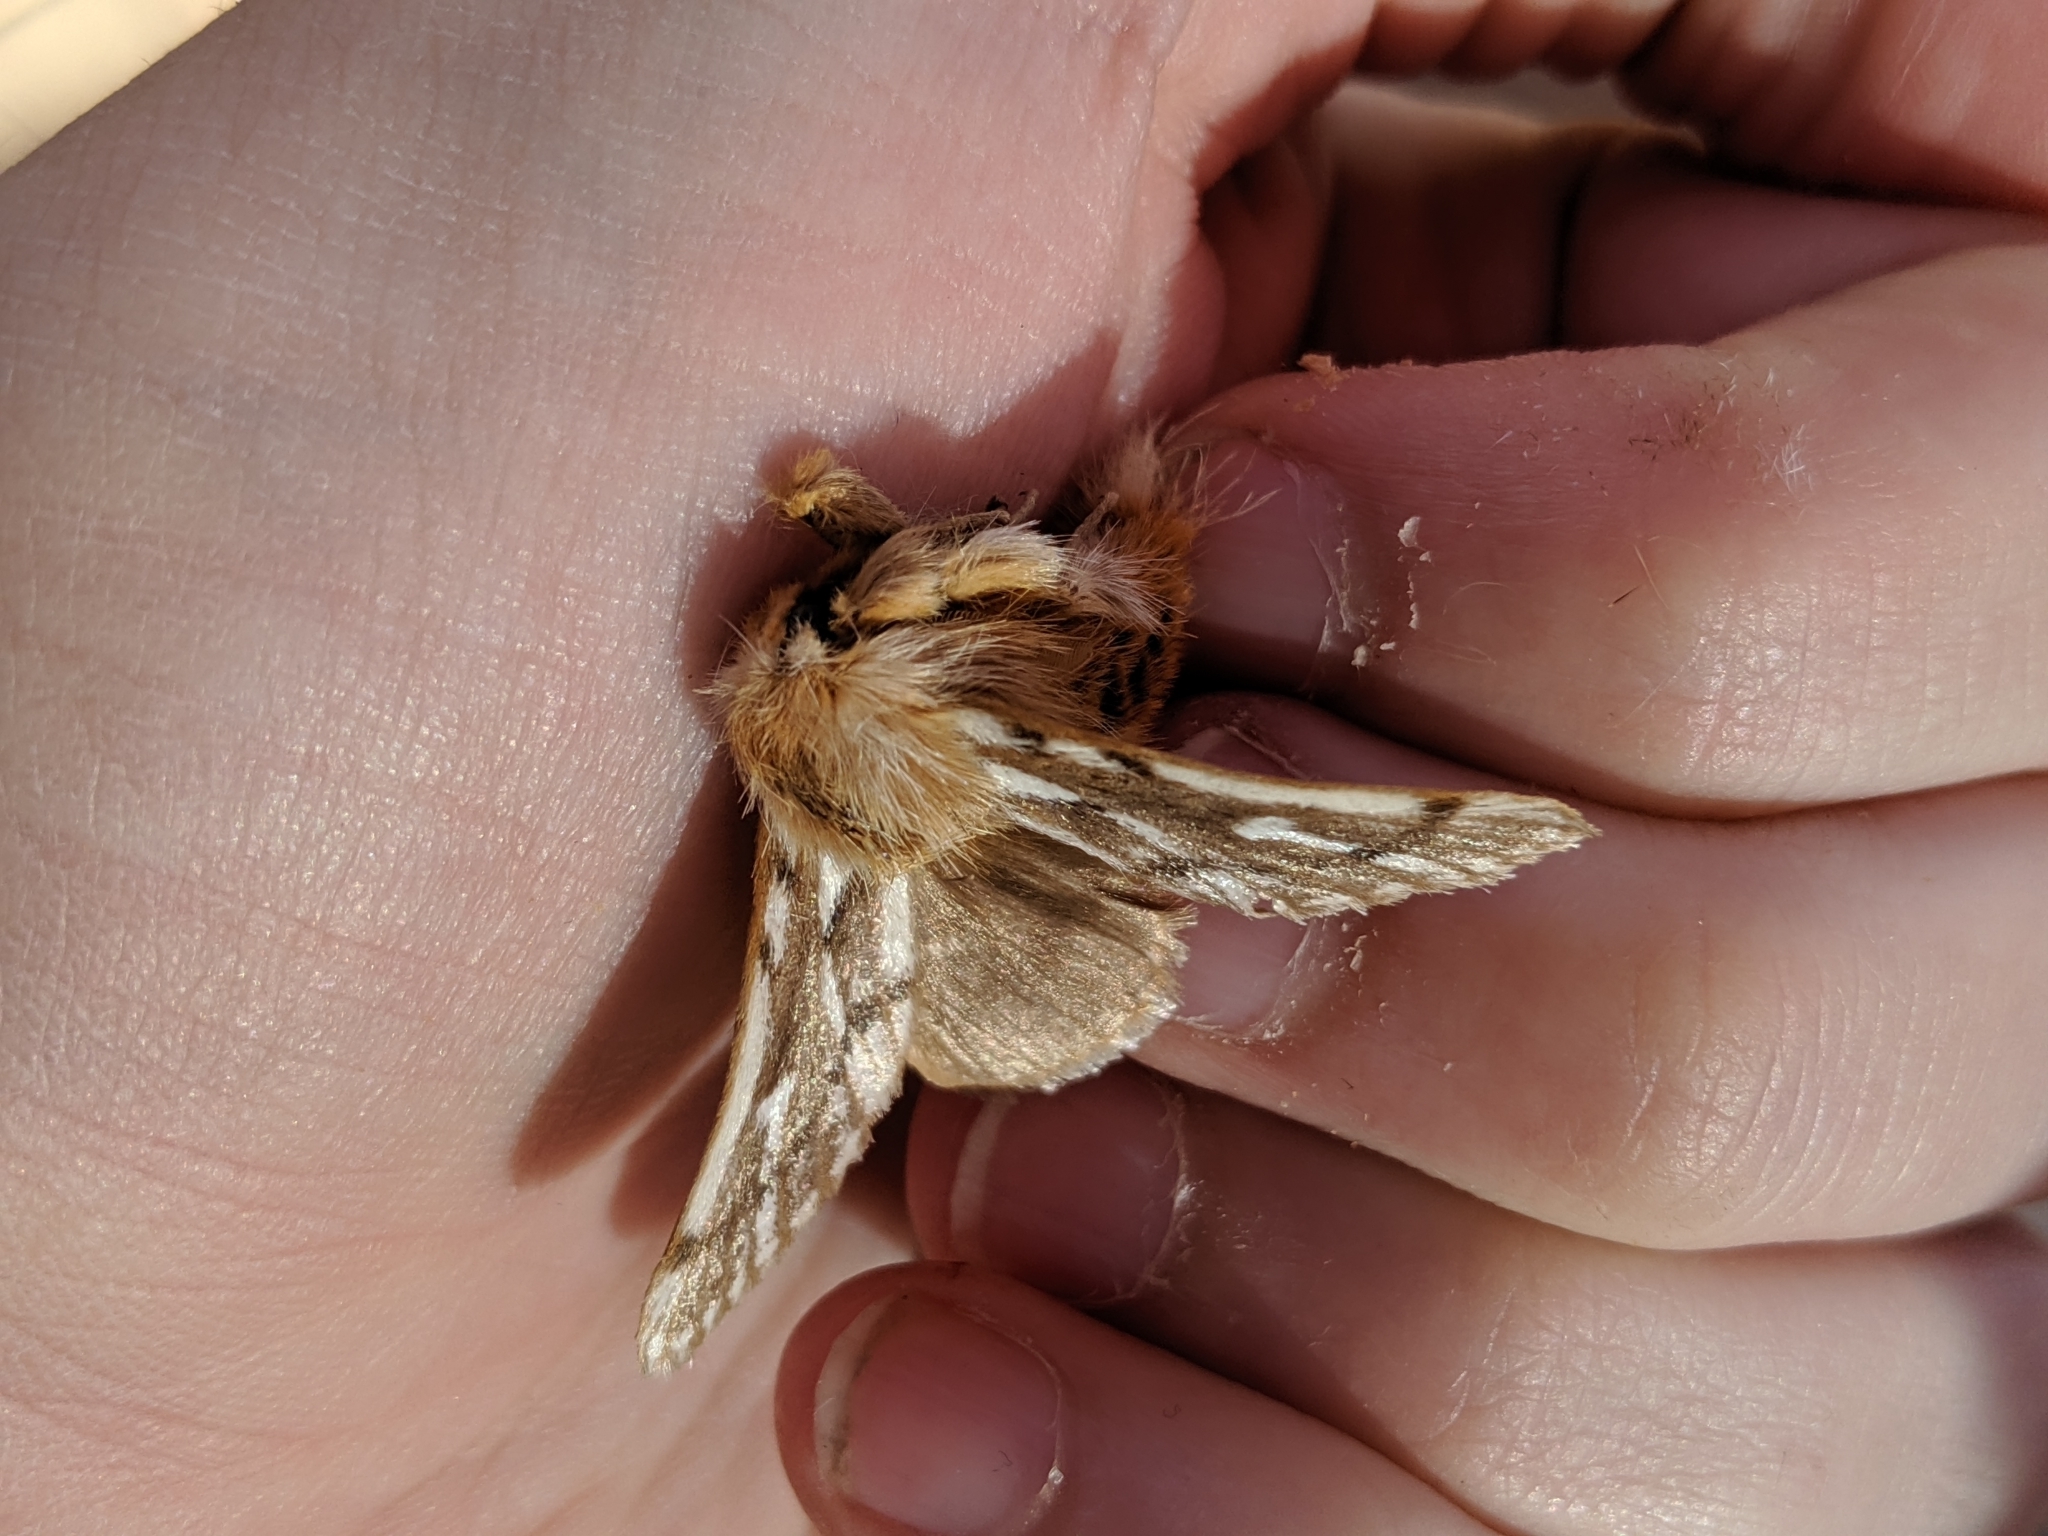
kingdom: Animalia
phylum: Arthropoda
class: Insecta
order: Lepidoptera
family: Notodontidae
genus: Ochrogaster
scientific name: Ochrogaster lunifer
